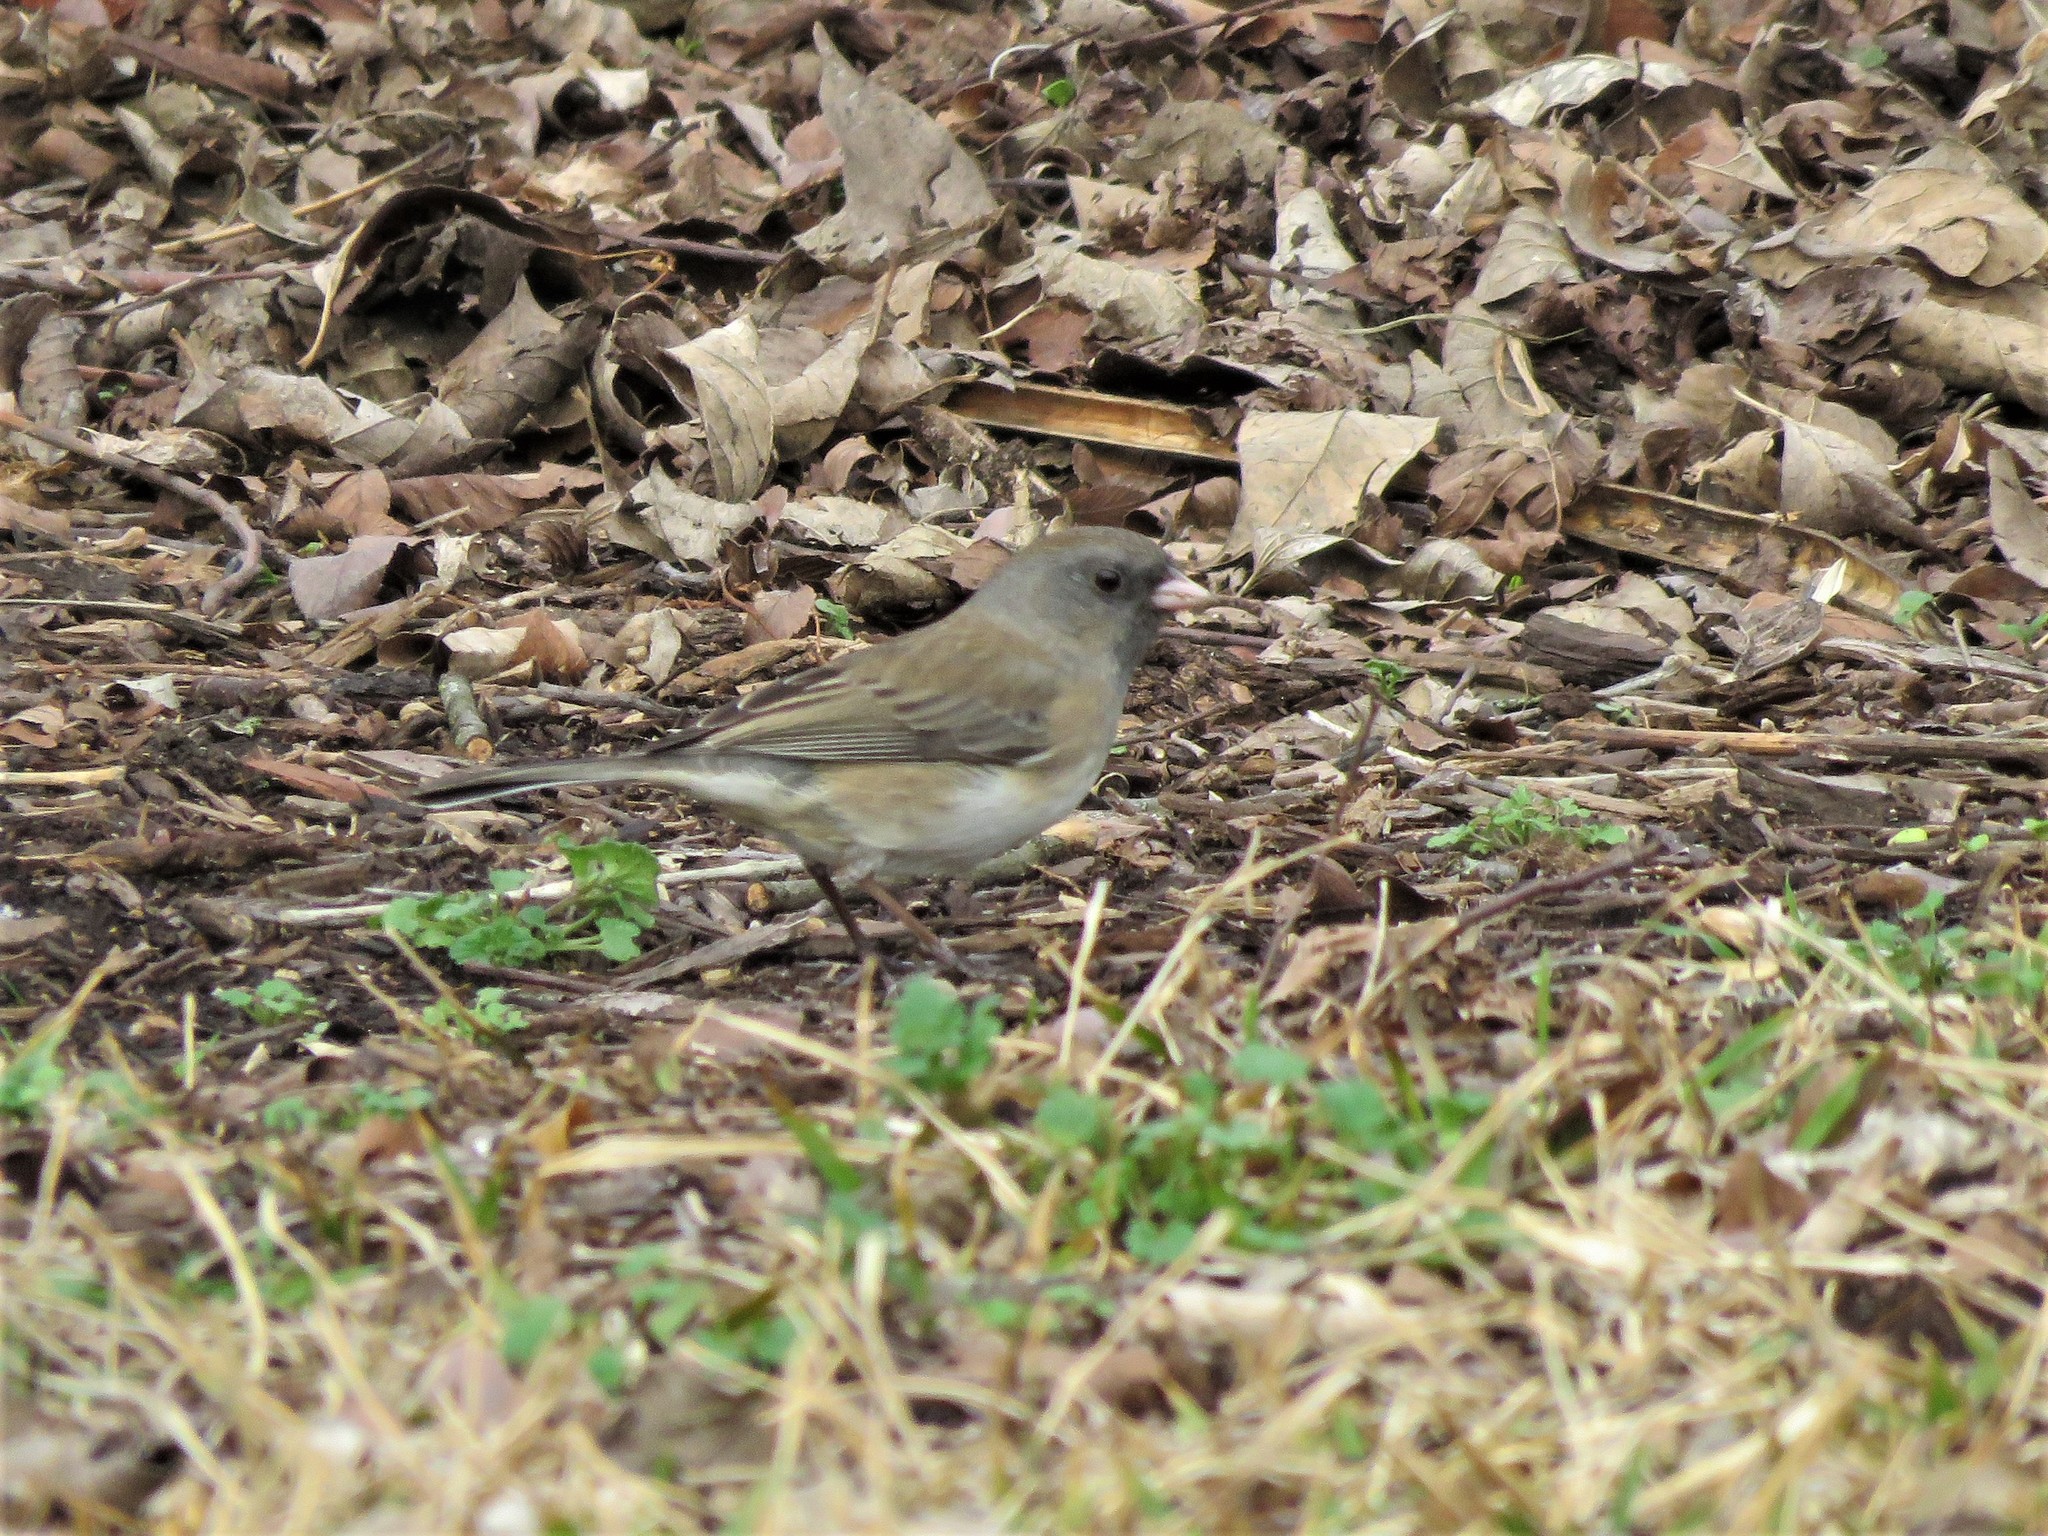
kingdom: Animalia
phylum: Chordata
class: Aves
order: Passeriformes
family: Passerellidae
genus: Junco
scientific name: Junco hyemalis
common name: Dark-eyed junco
